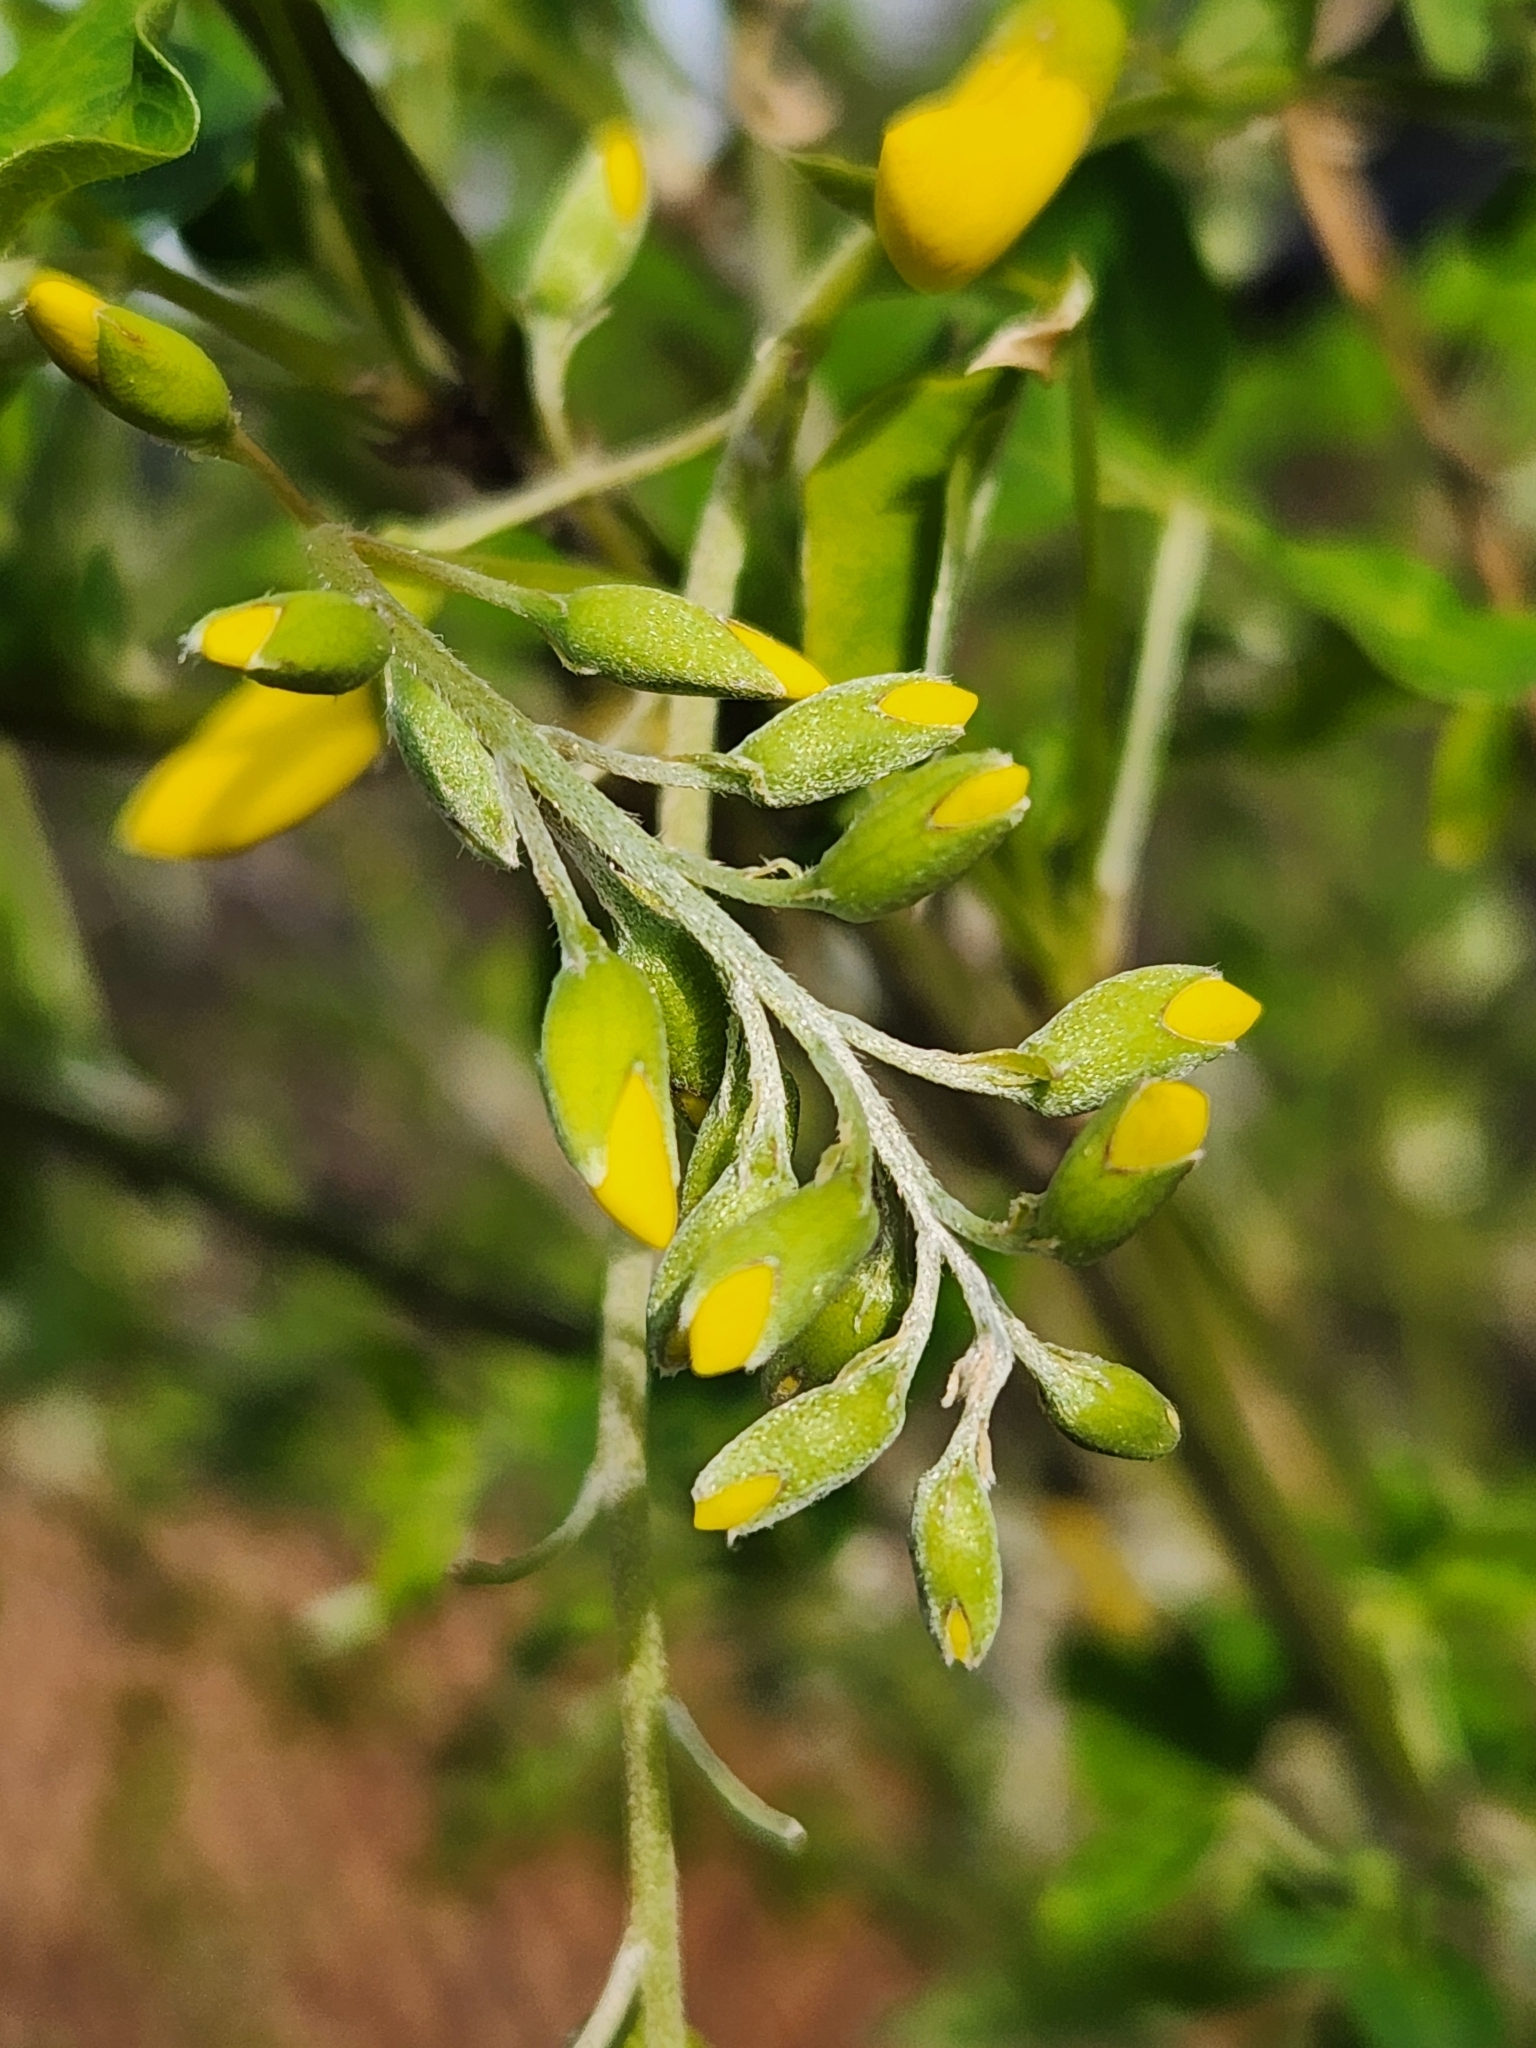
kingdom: Plantae
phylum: Tracheophyta
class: Magnoliopsida
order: Fabales
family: Fabaceae
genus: Laburnum
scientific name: Laburnum anagyroides
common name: Laburnum
